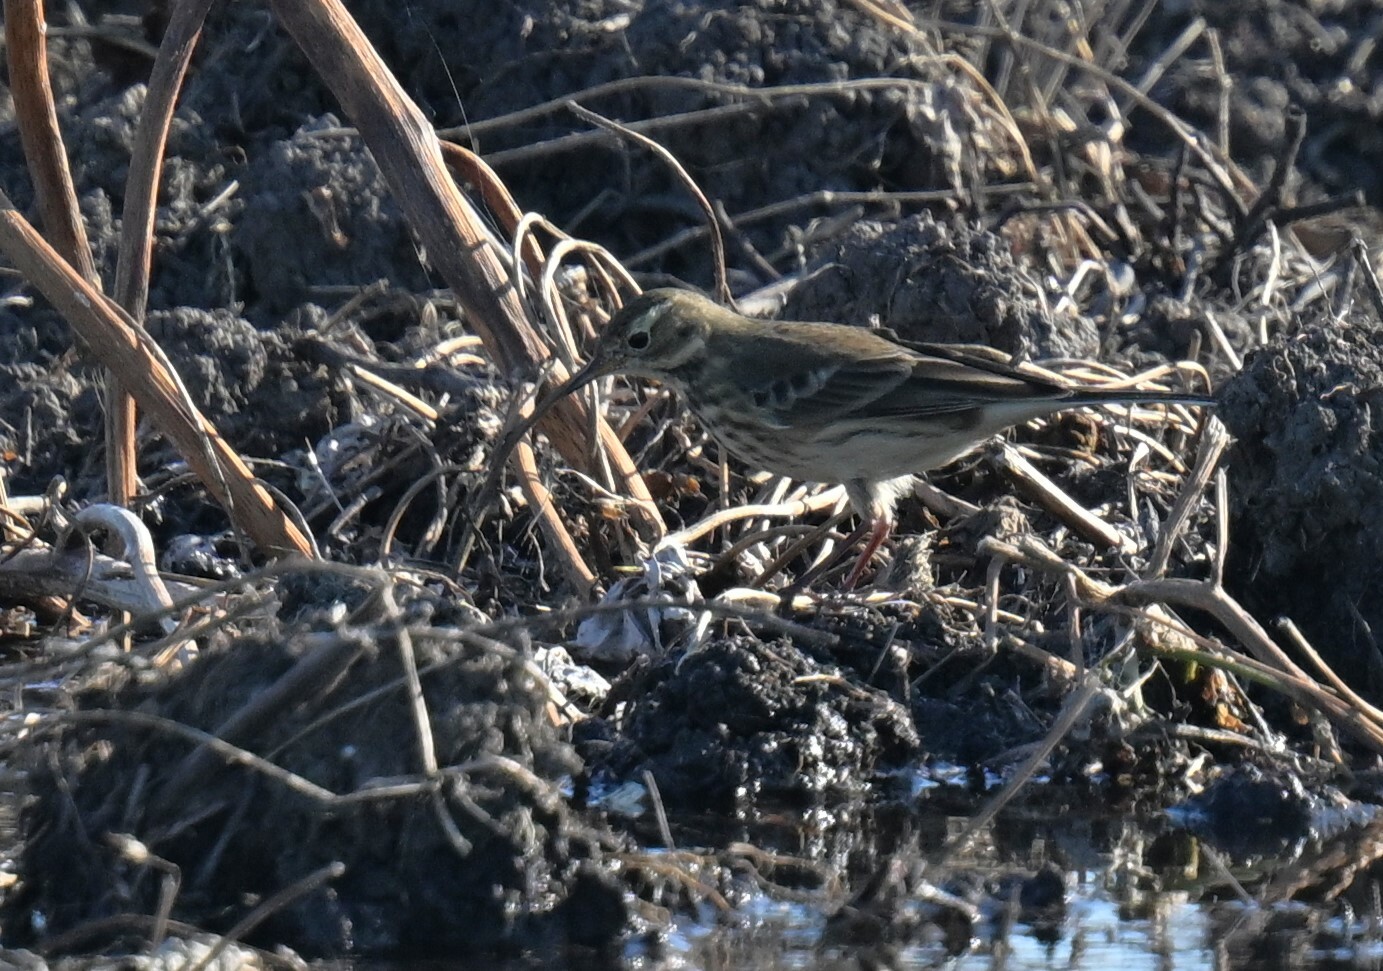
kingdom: Animalia
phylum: Chordata
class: Aves
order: Passeriformes
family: Motacillidae
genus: Anthus
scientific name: Anthus rubescens
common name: Buff-bellied pipit
